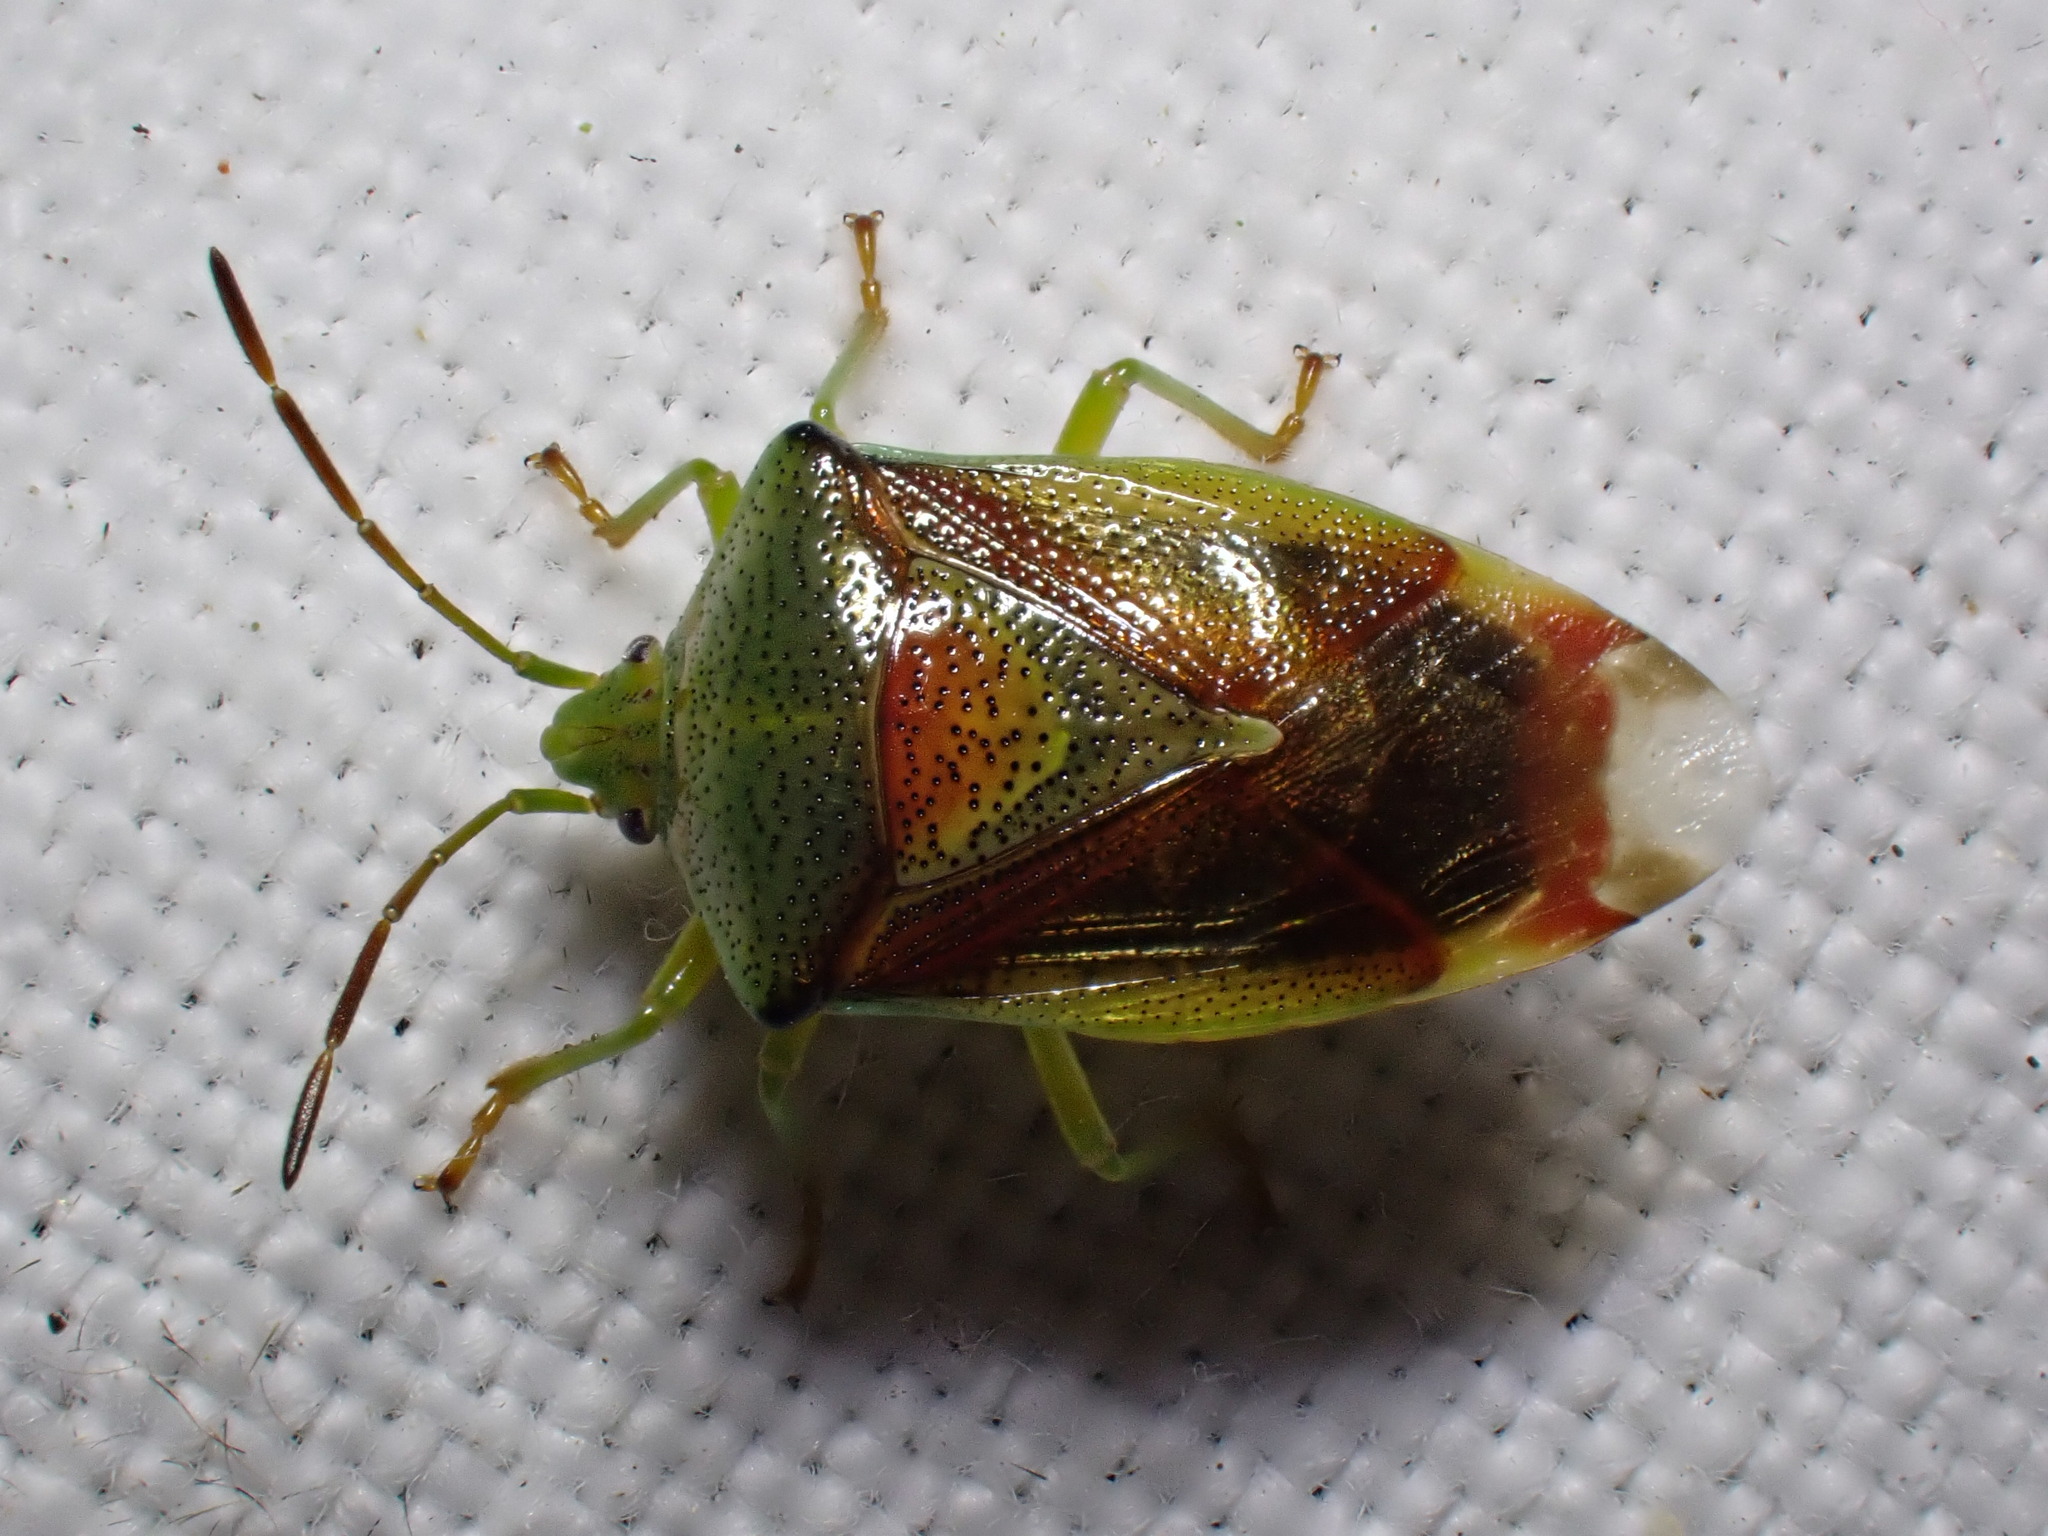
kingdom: Animalia
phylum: Arthropoda
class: Insecta
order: Hemiptera
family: Acanthosomatidae
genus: Elasmostethus
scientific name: Elasmostethus interstinctus
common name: Birch shieldbug
